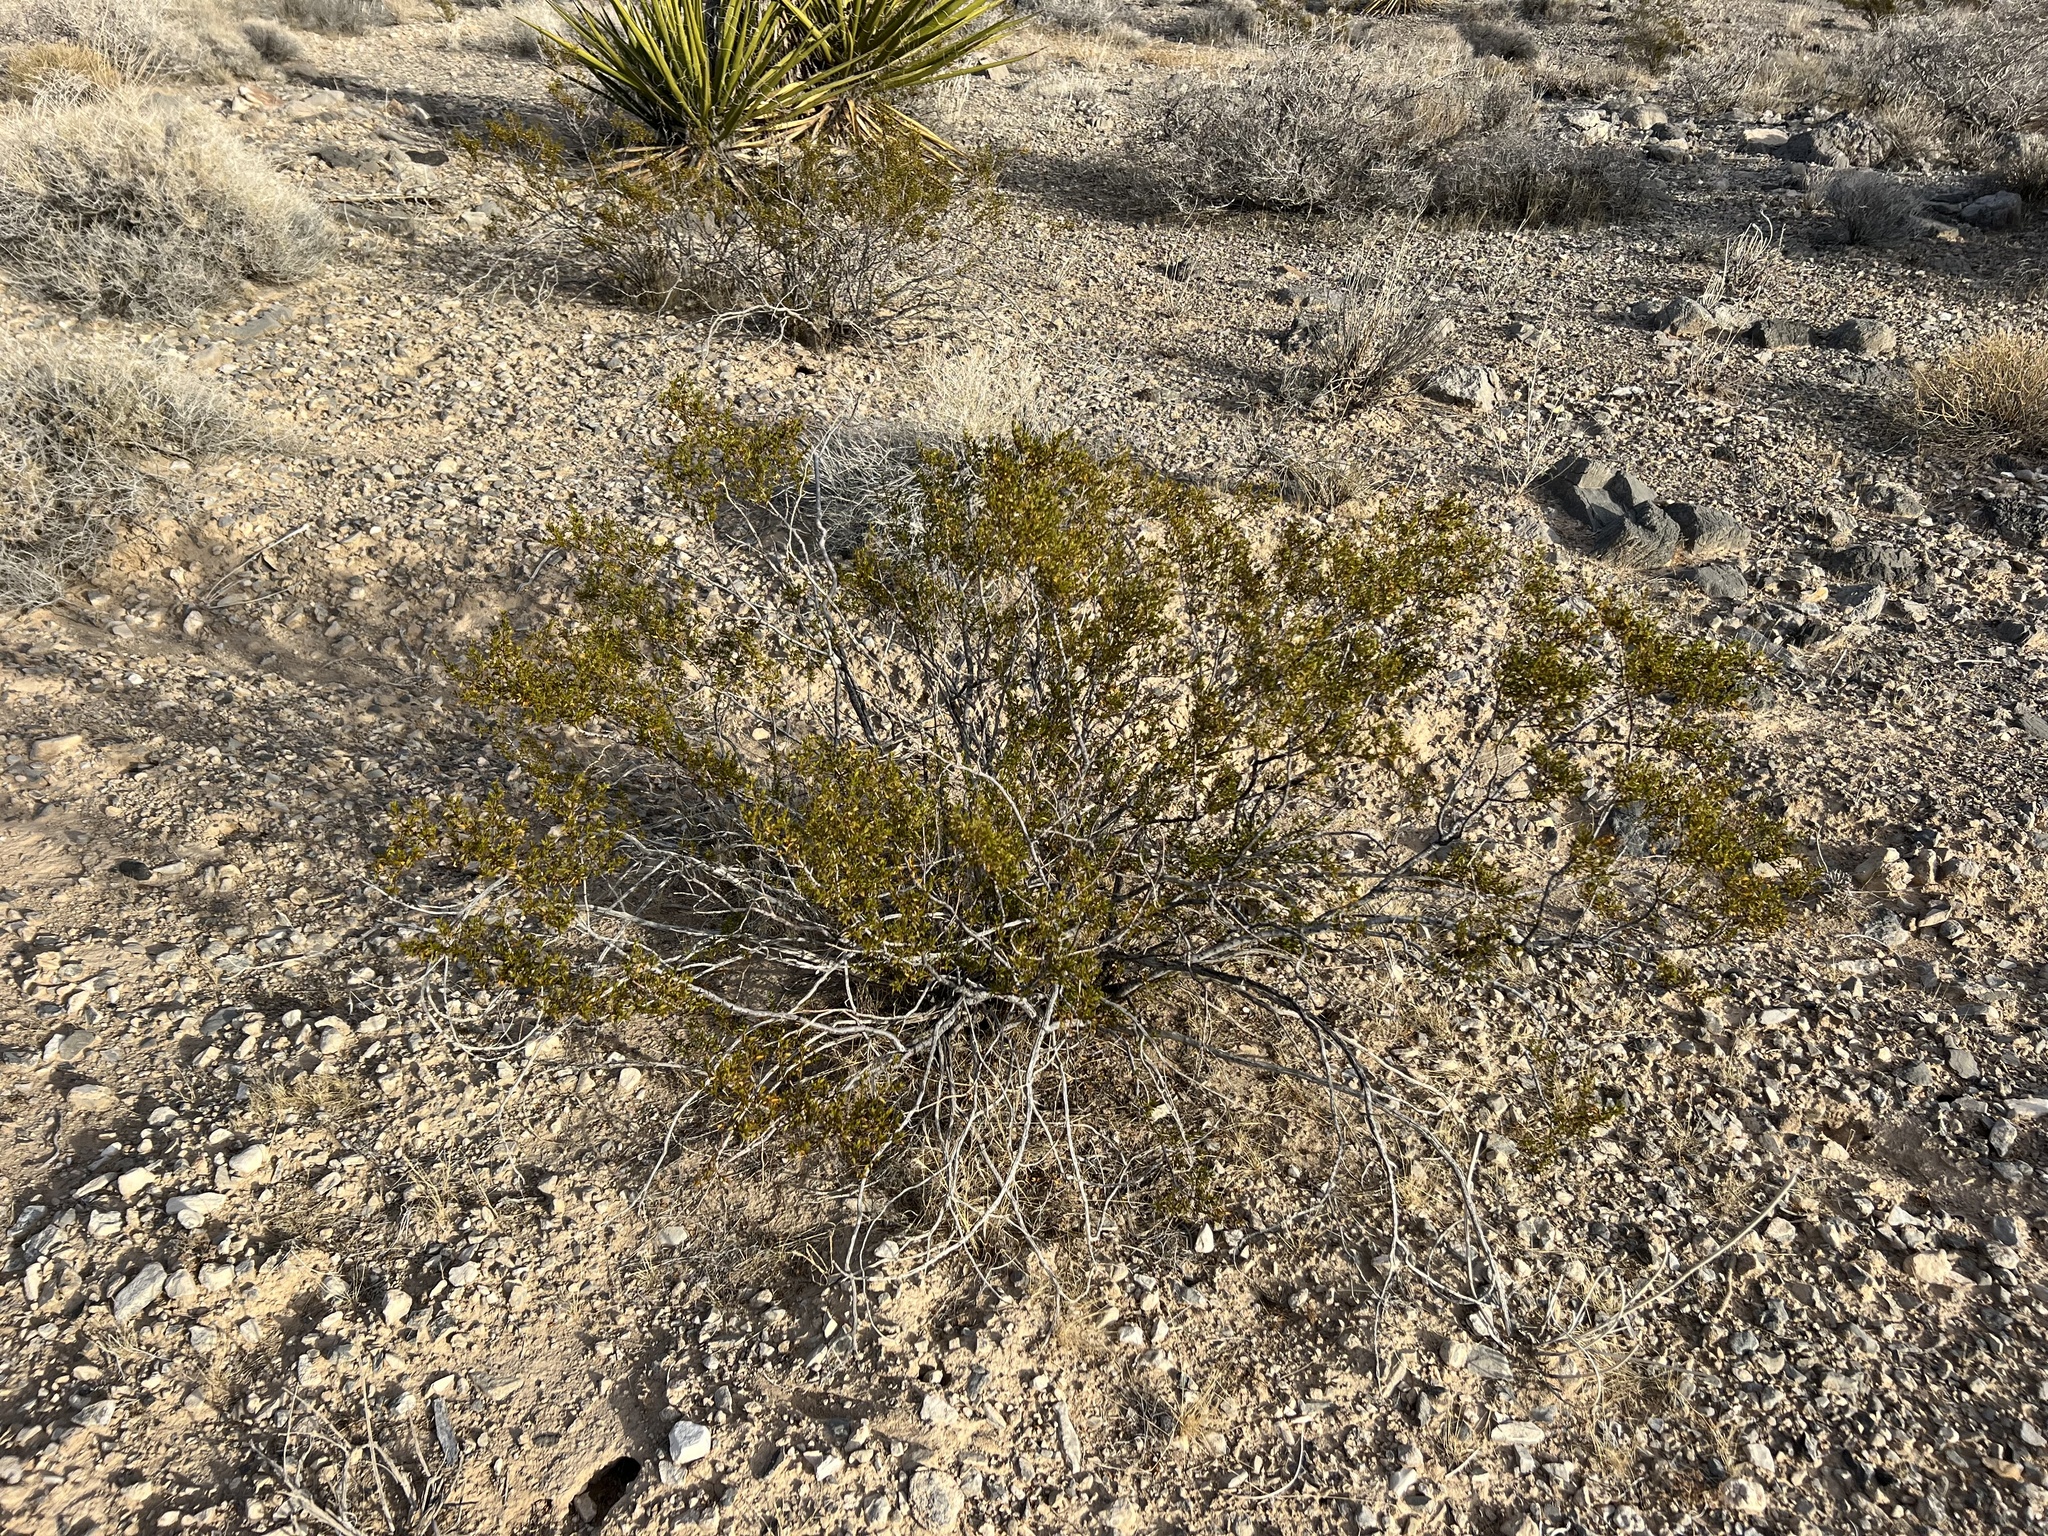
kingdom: Plantae
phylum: Tracheophyta
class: Magnoliopsida
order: Zygophyllales
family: Zygophyllaceae
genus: Larrea
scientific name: Larrea tridentata
